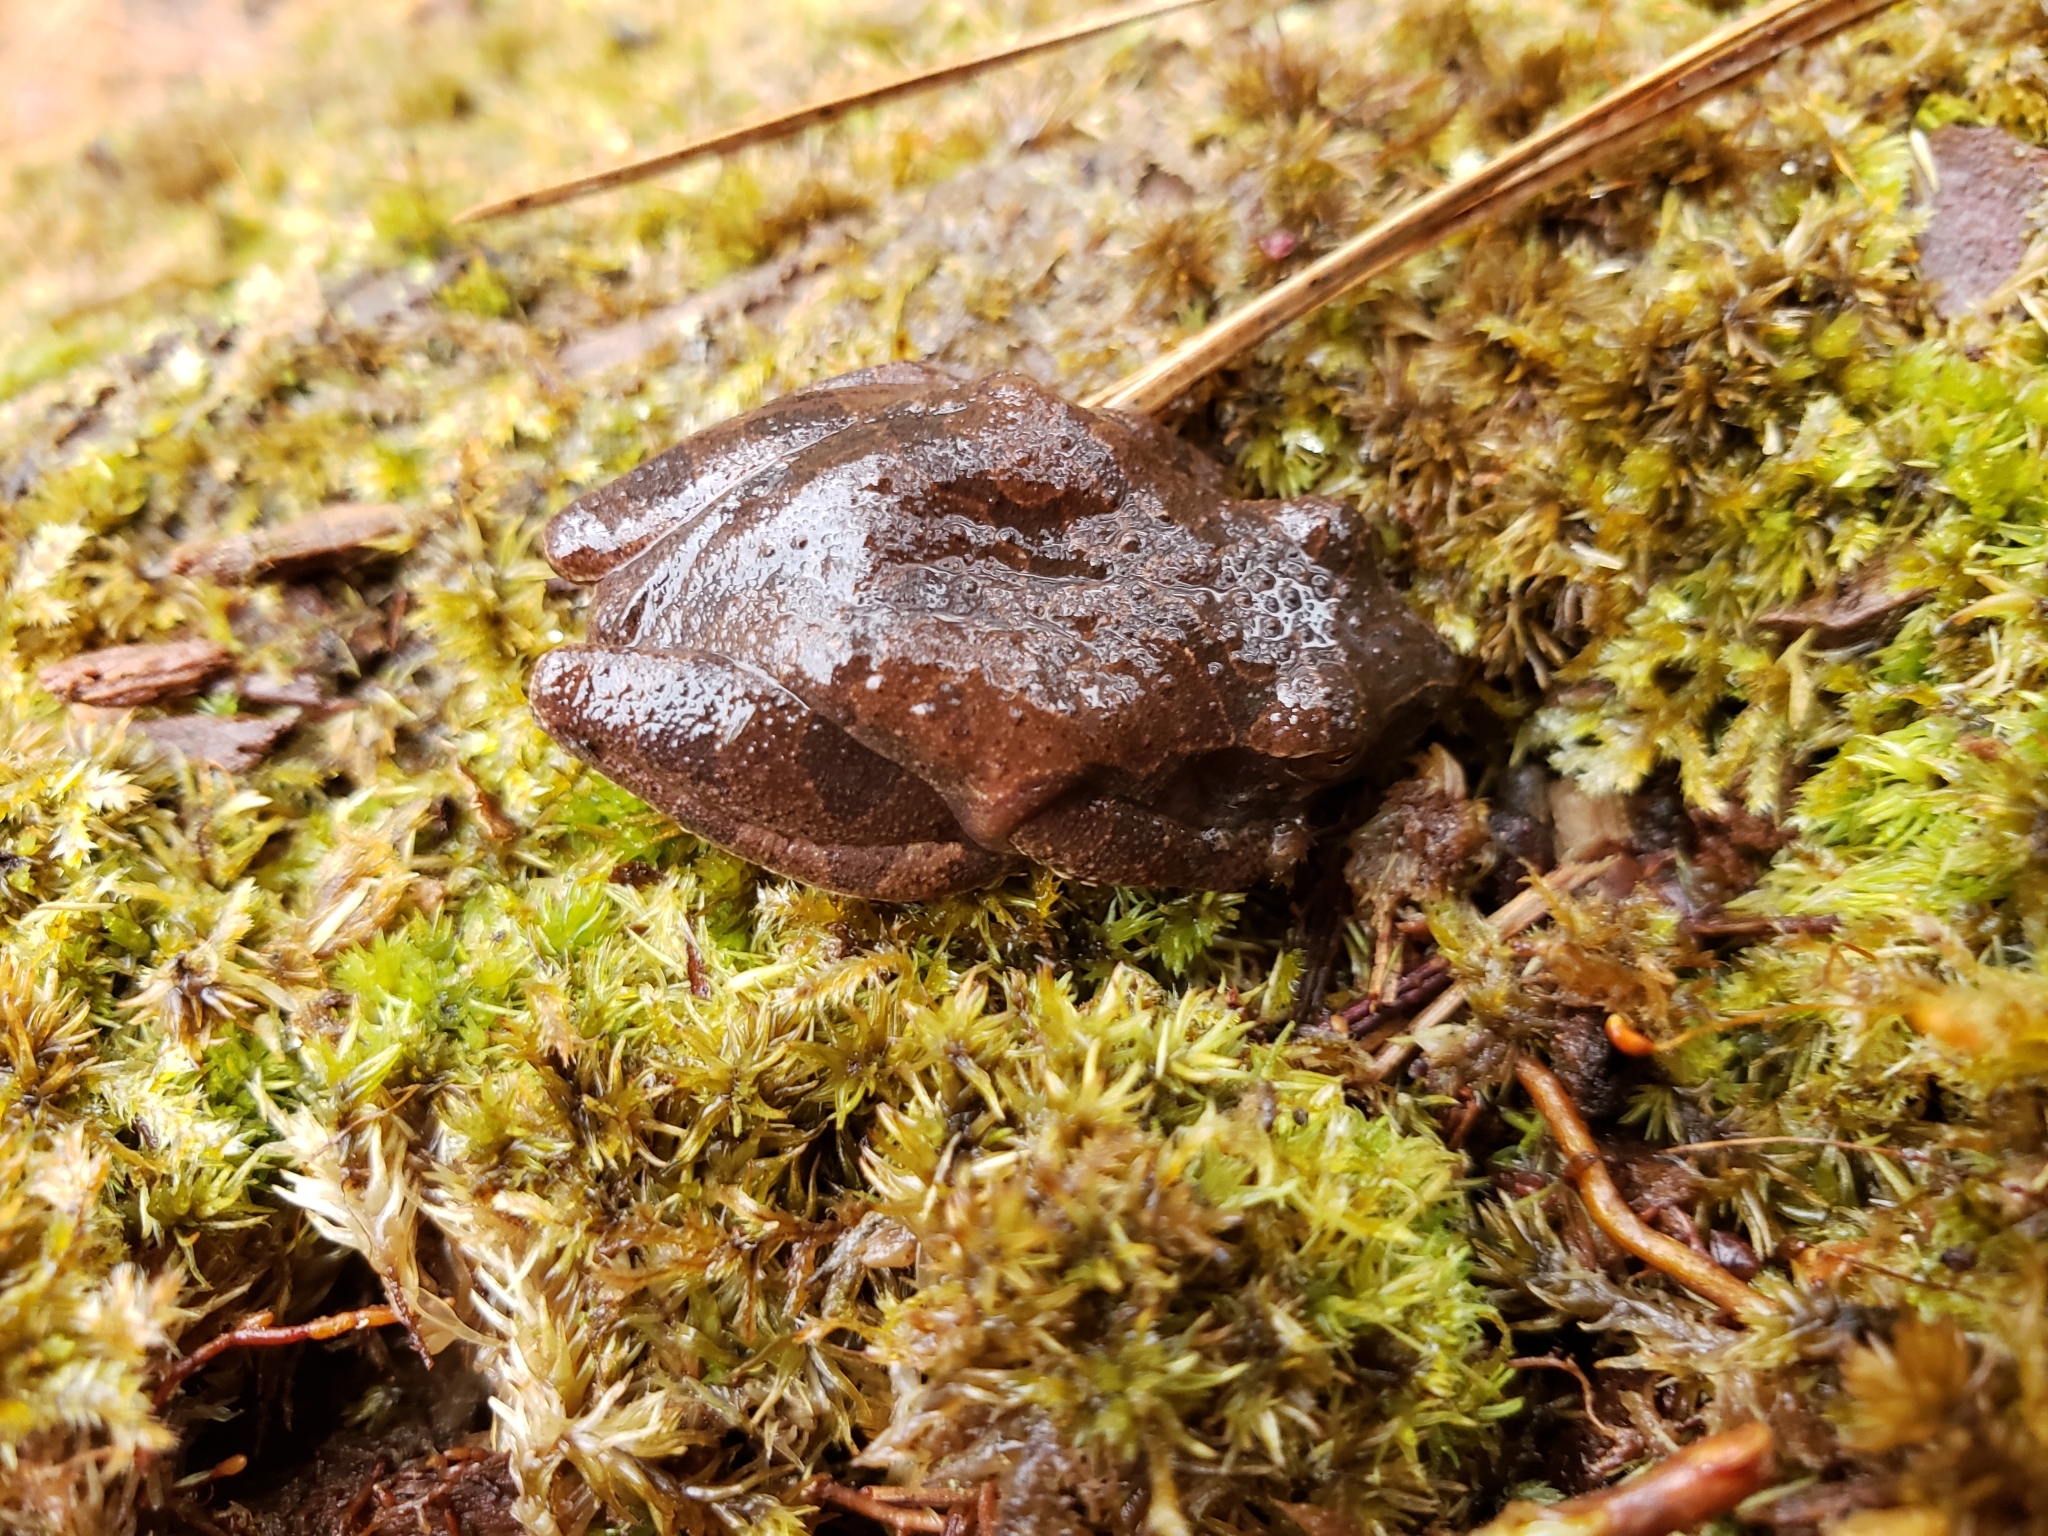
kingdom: Animalia
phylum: Chordata
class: Amphibia
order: Anura
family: Hylidae
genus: Pseudacris
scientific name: Pseudacris crucifer
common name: Spring peeper
